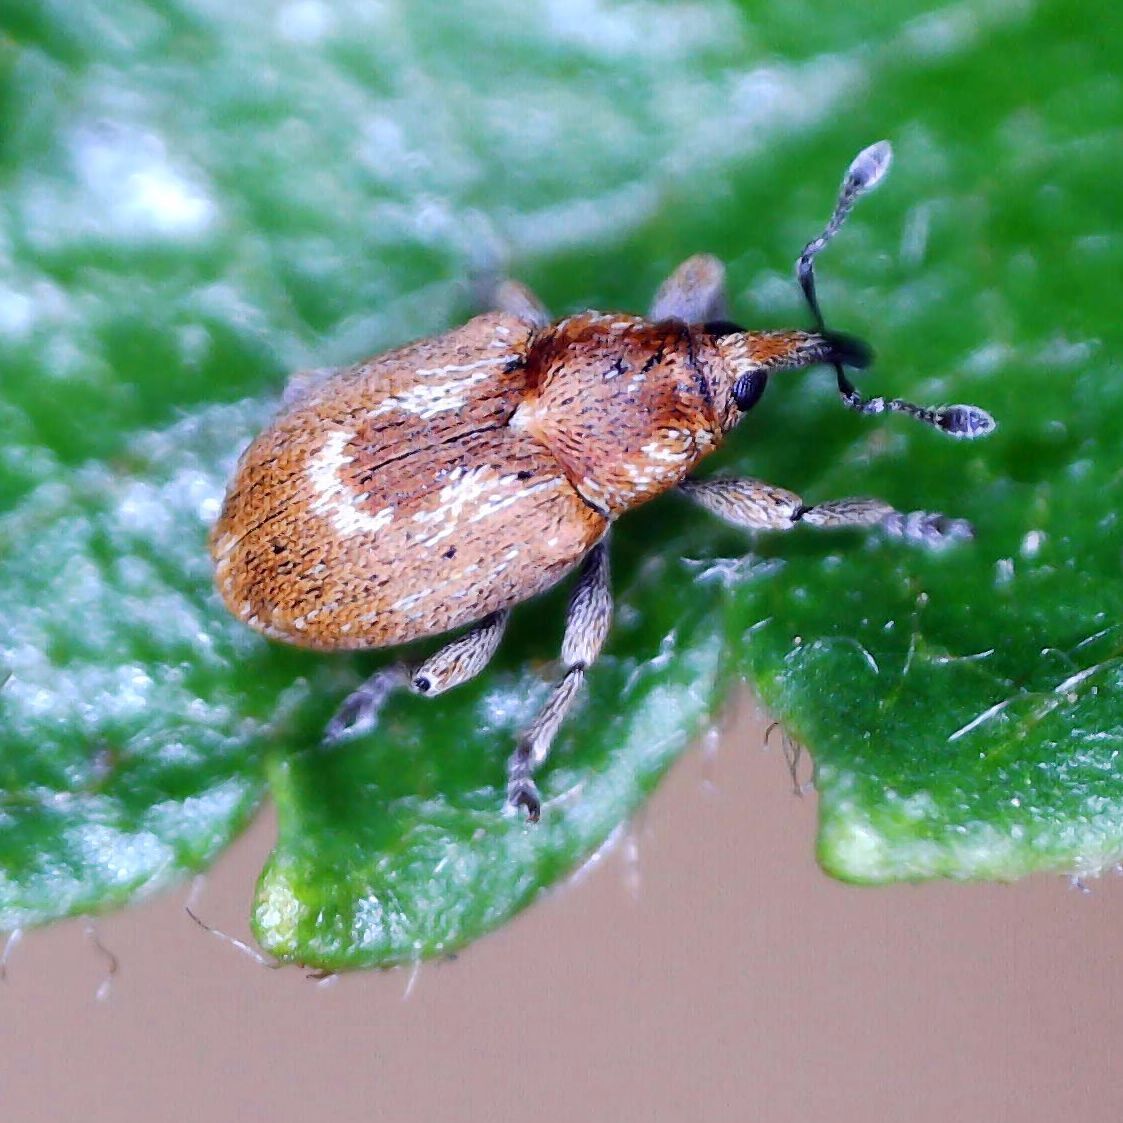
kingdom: Animalia
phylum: Arthropoda
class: Insecta
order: Coleoptera
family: Curculionidae
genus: Sibinia
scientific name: Sibinia primita
